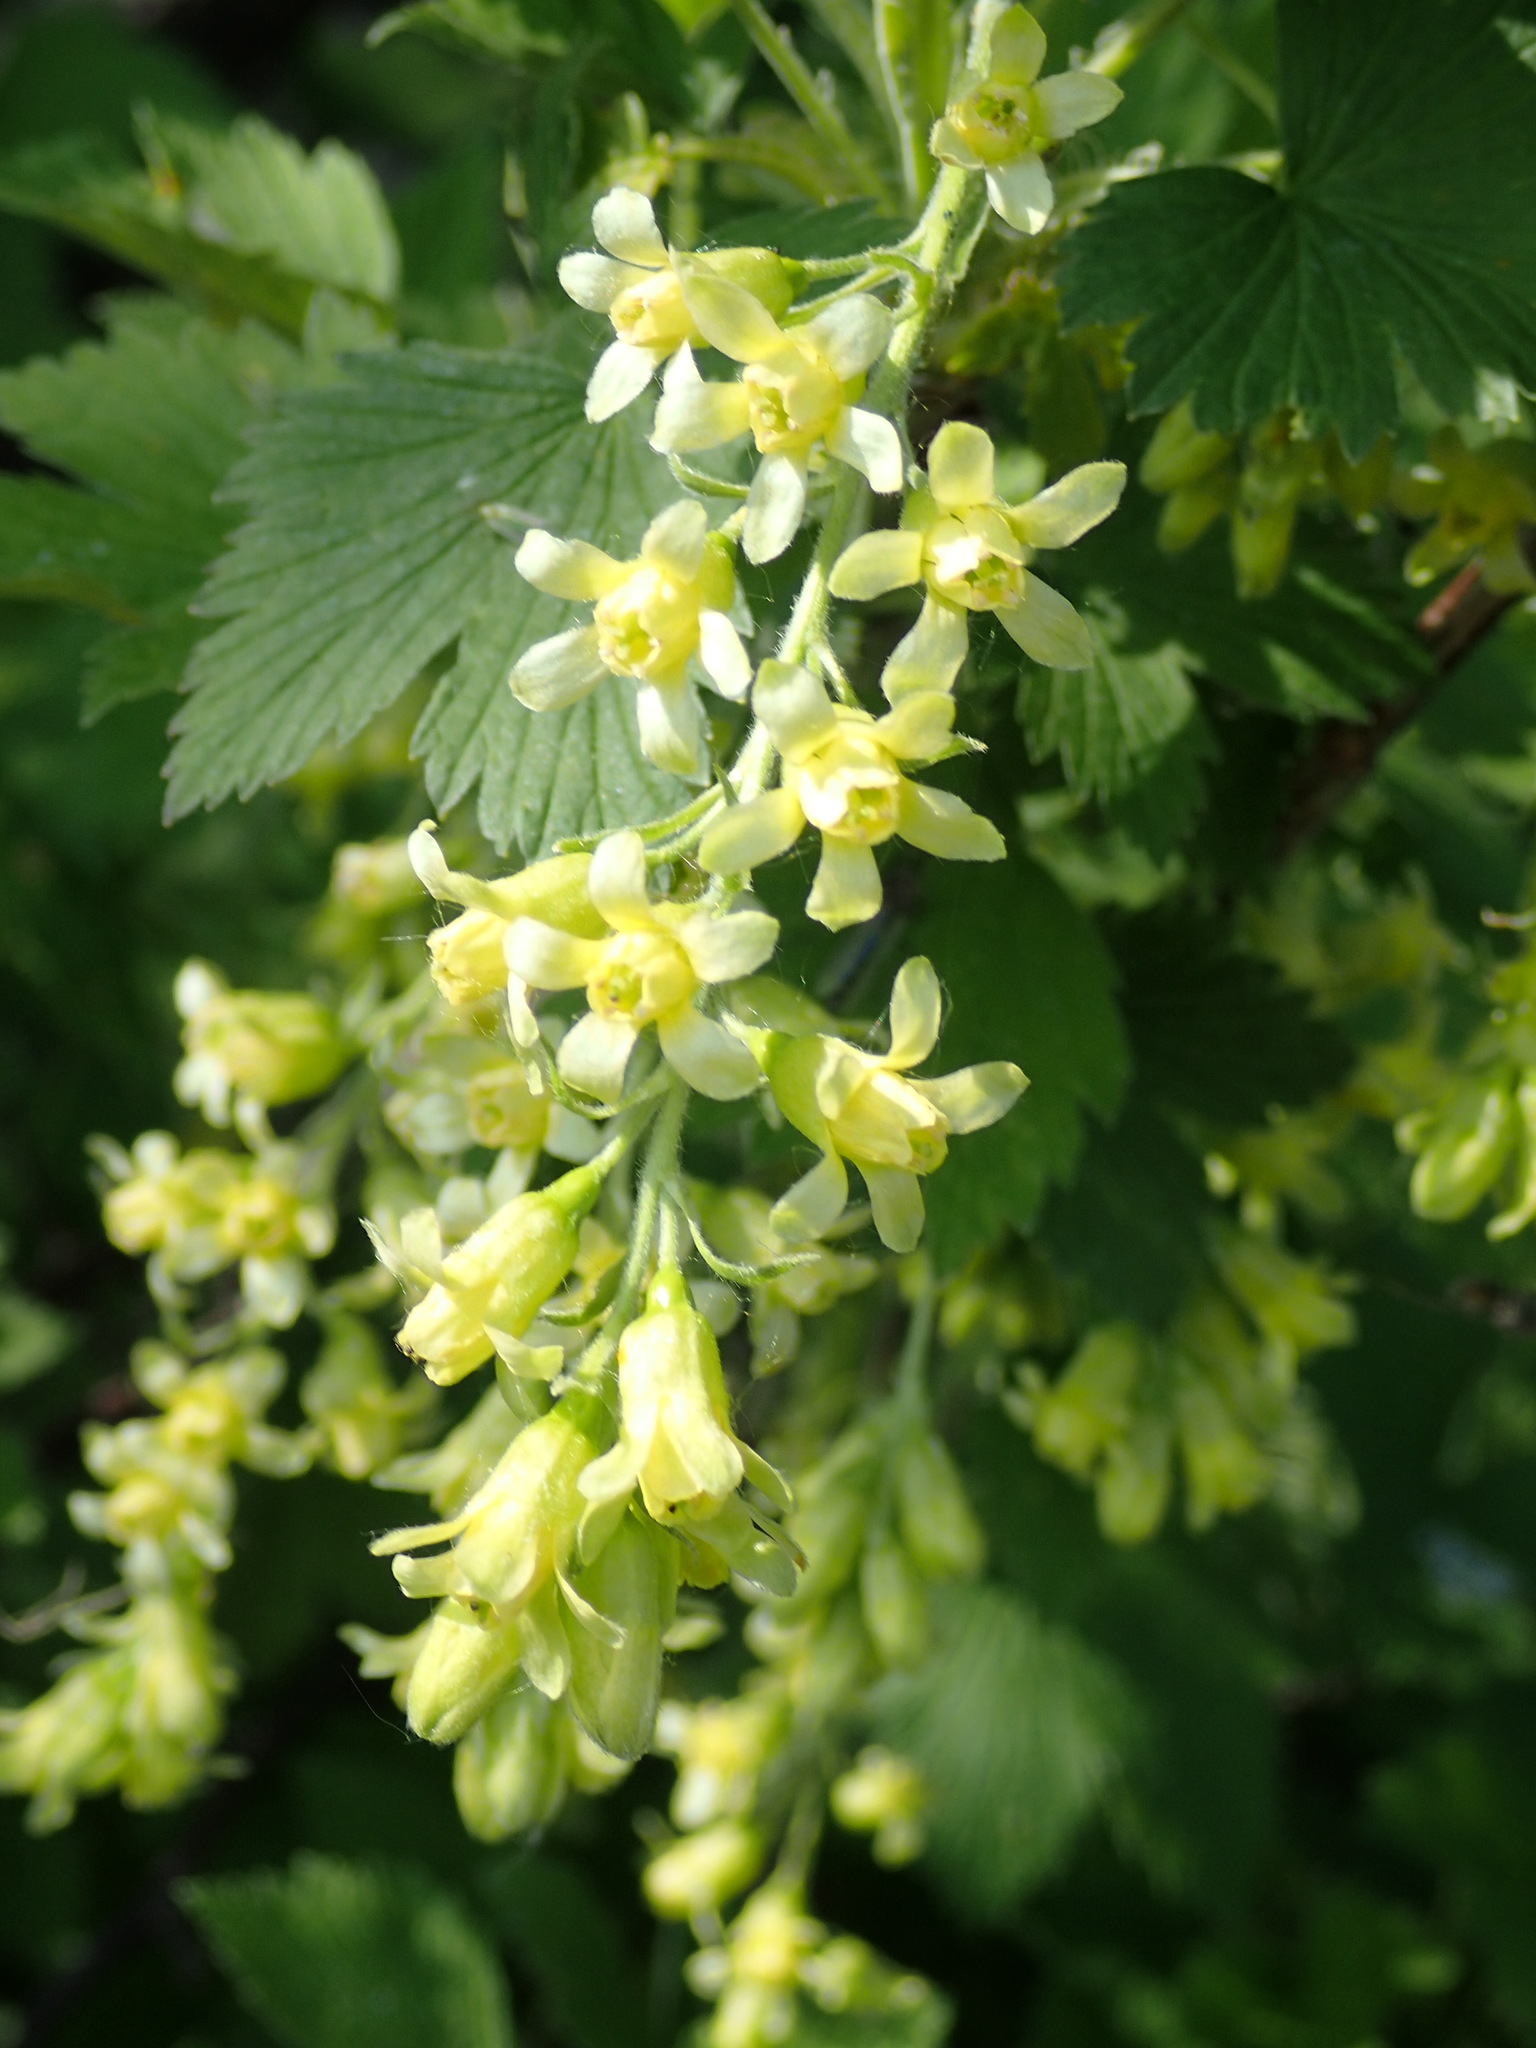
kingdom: Plantae
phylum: Tracheophyta
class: Magnoliopsida
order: Saxifragales
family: Grossulariaceae
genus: Ribes
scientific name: Ribes americanum
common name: American black currant
